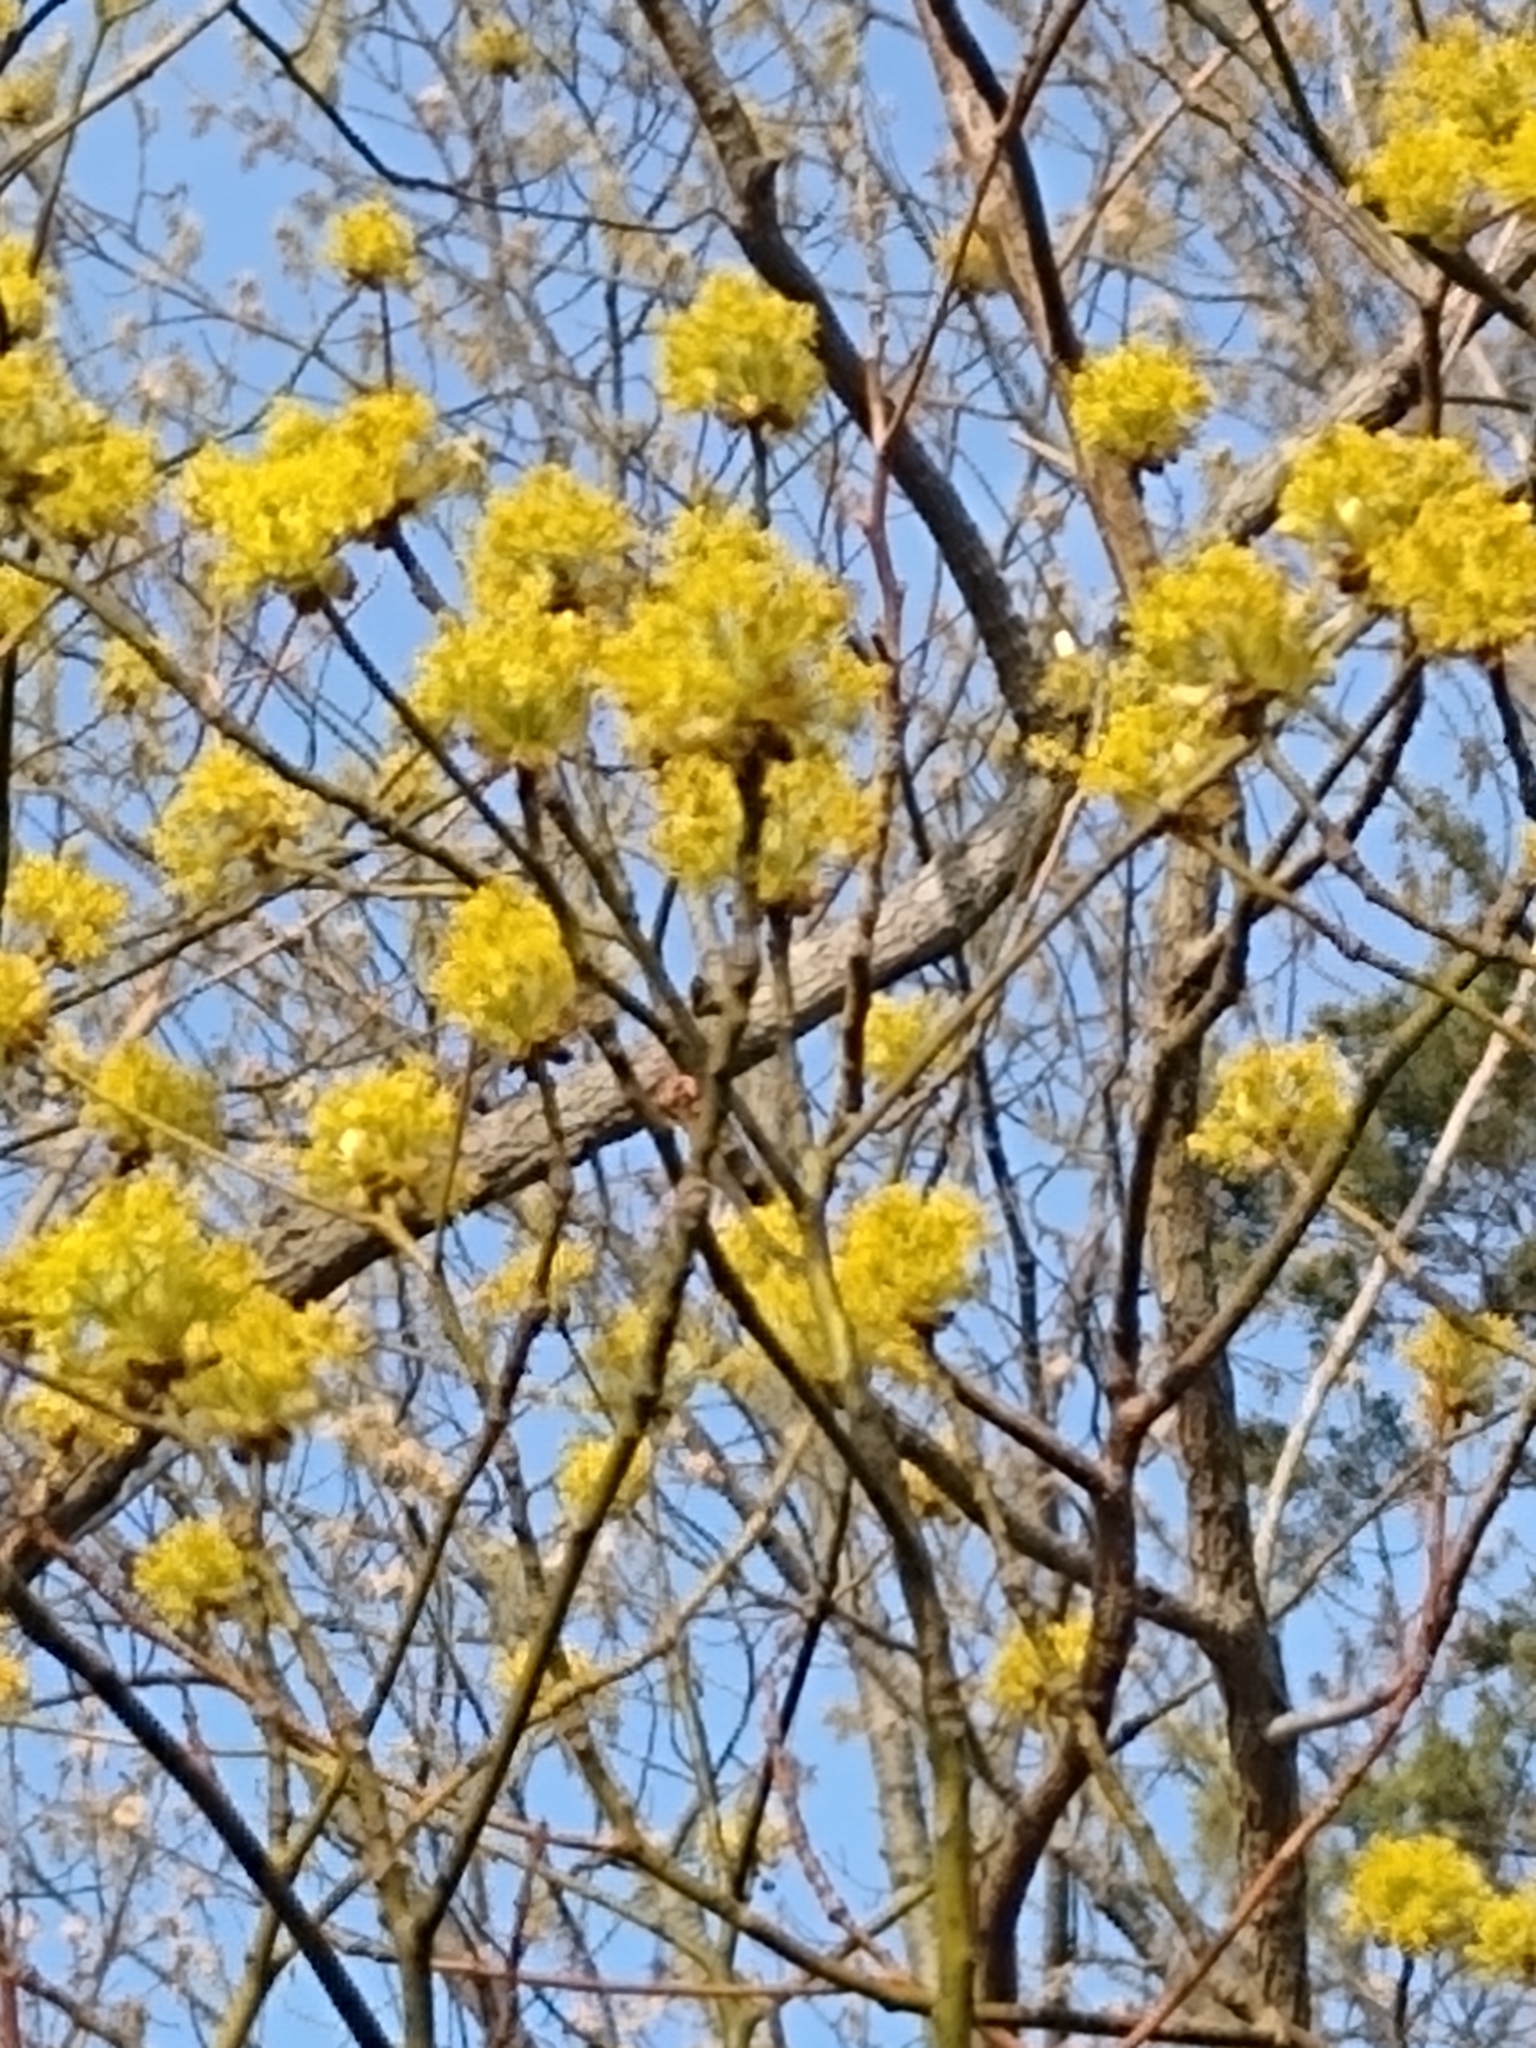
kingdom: Plantae
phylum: Tracheophyta
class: Magnoliopsida
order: Laurales
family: Lauraceae
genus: Sassafras
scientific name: Sassafras albidum
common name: Sassafras
